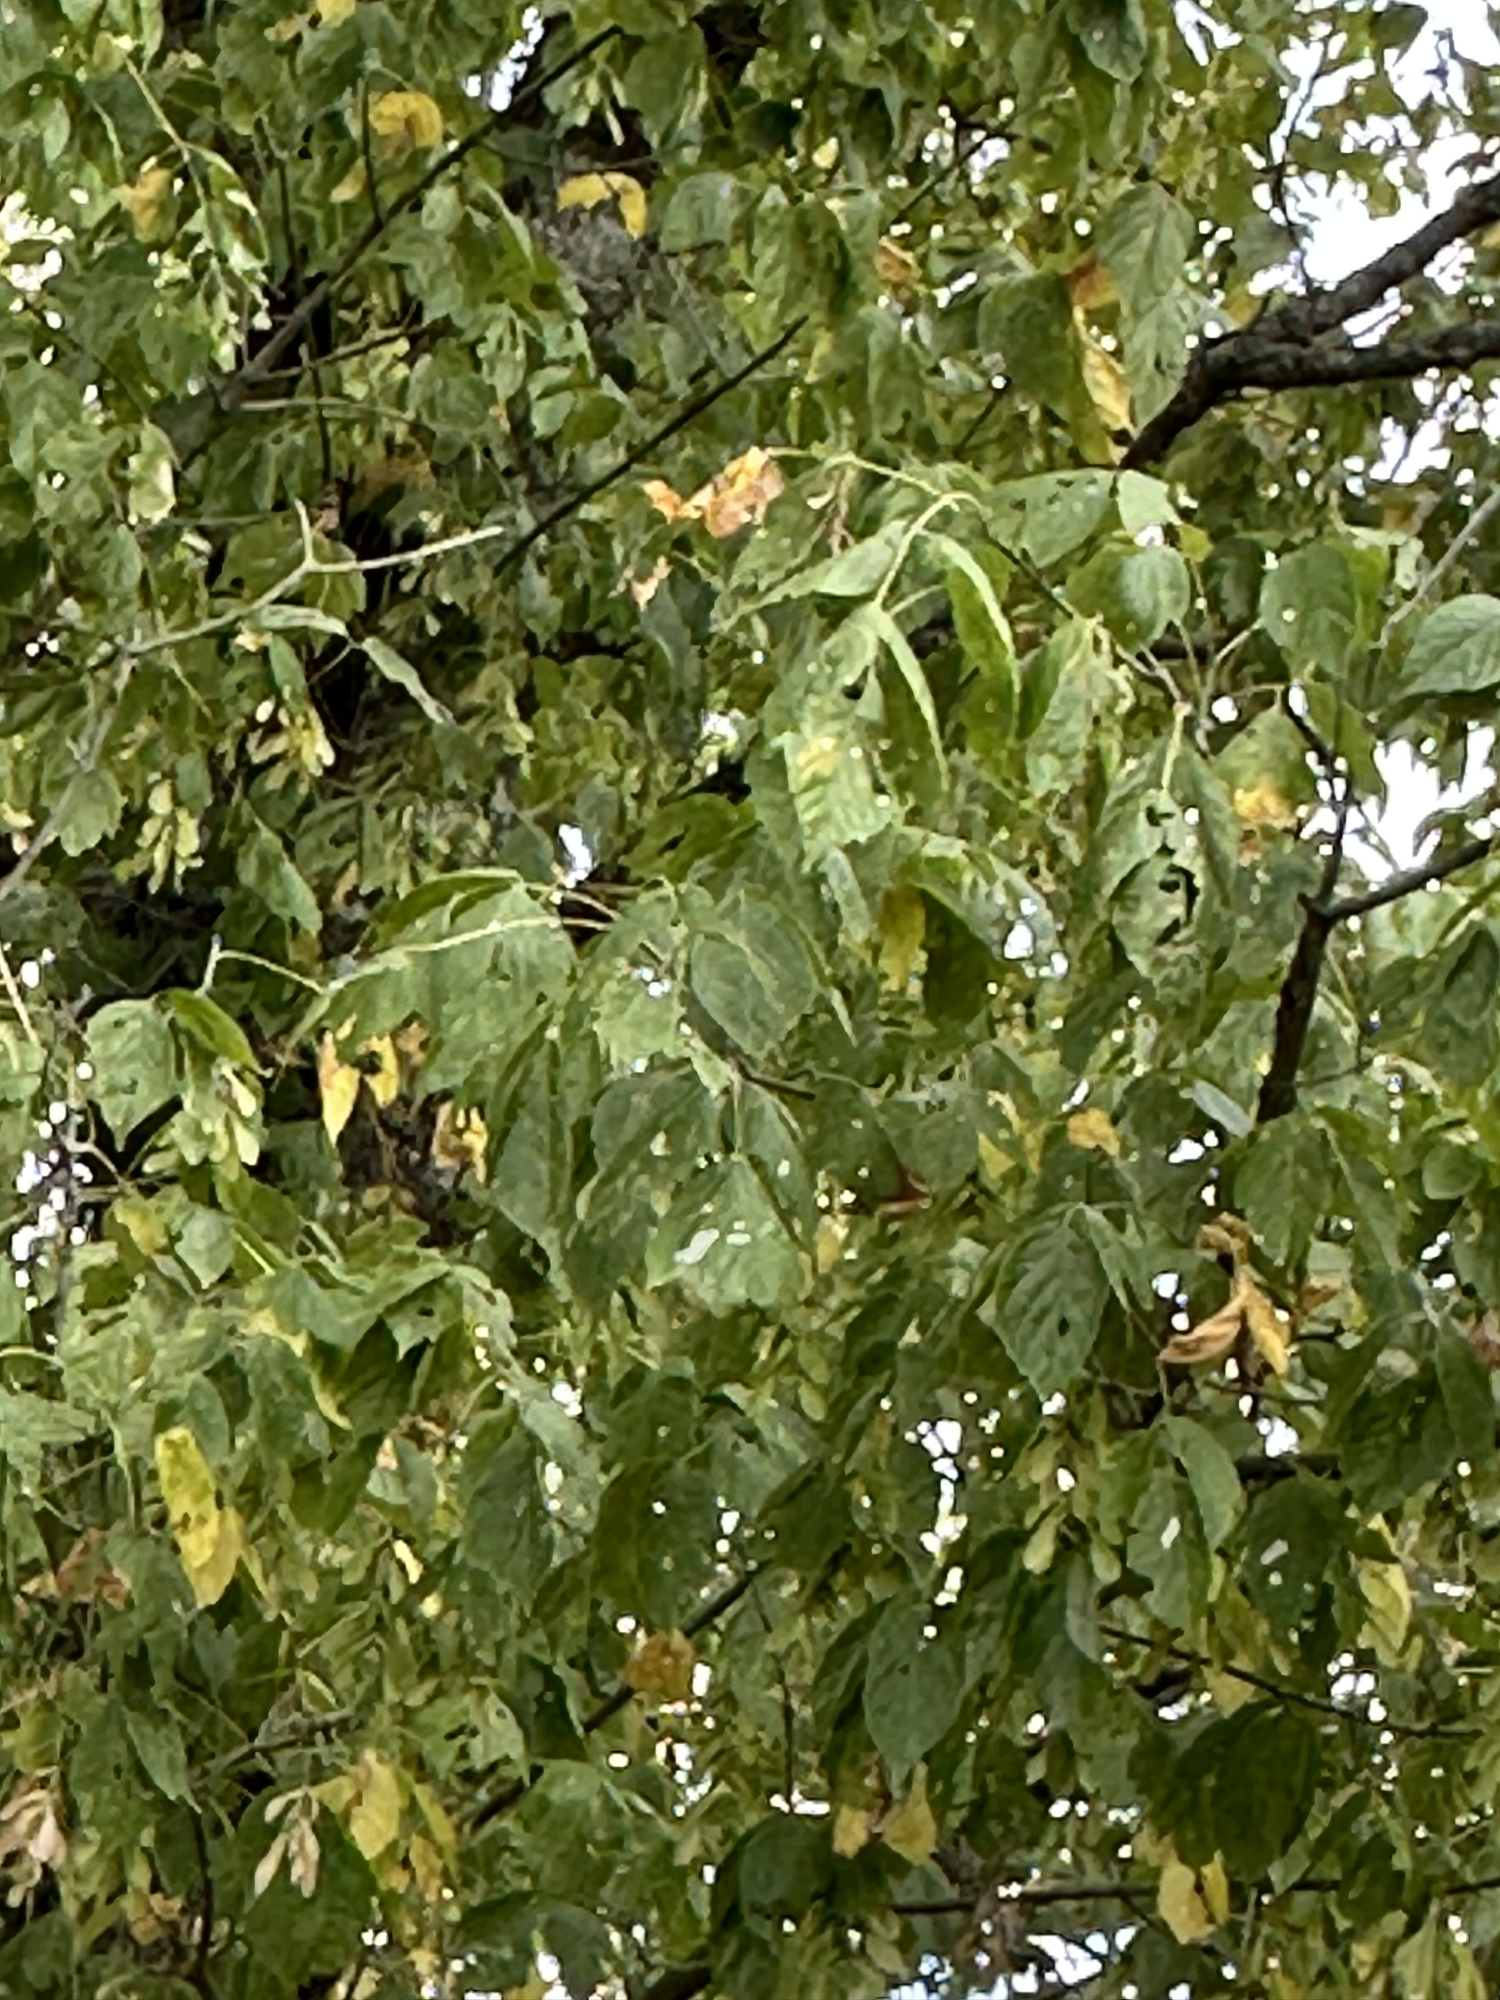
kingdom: Plantae
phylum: Tracheophyta
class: Magnoliopsida
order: Sapindales
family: Sapindaceae
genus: Acer
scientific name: Acer negundo
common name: Ashleaf maple
